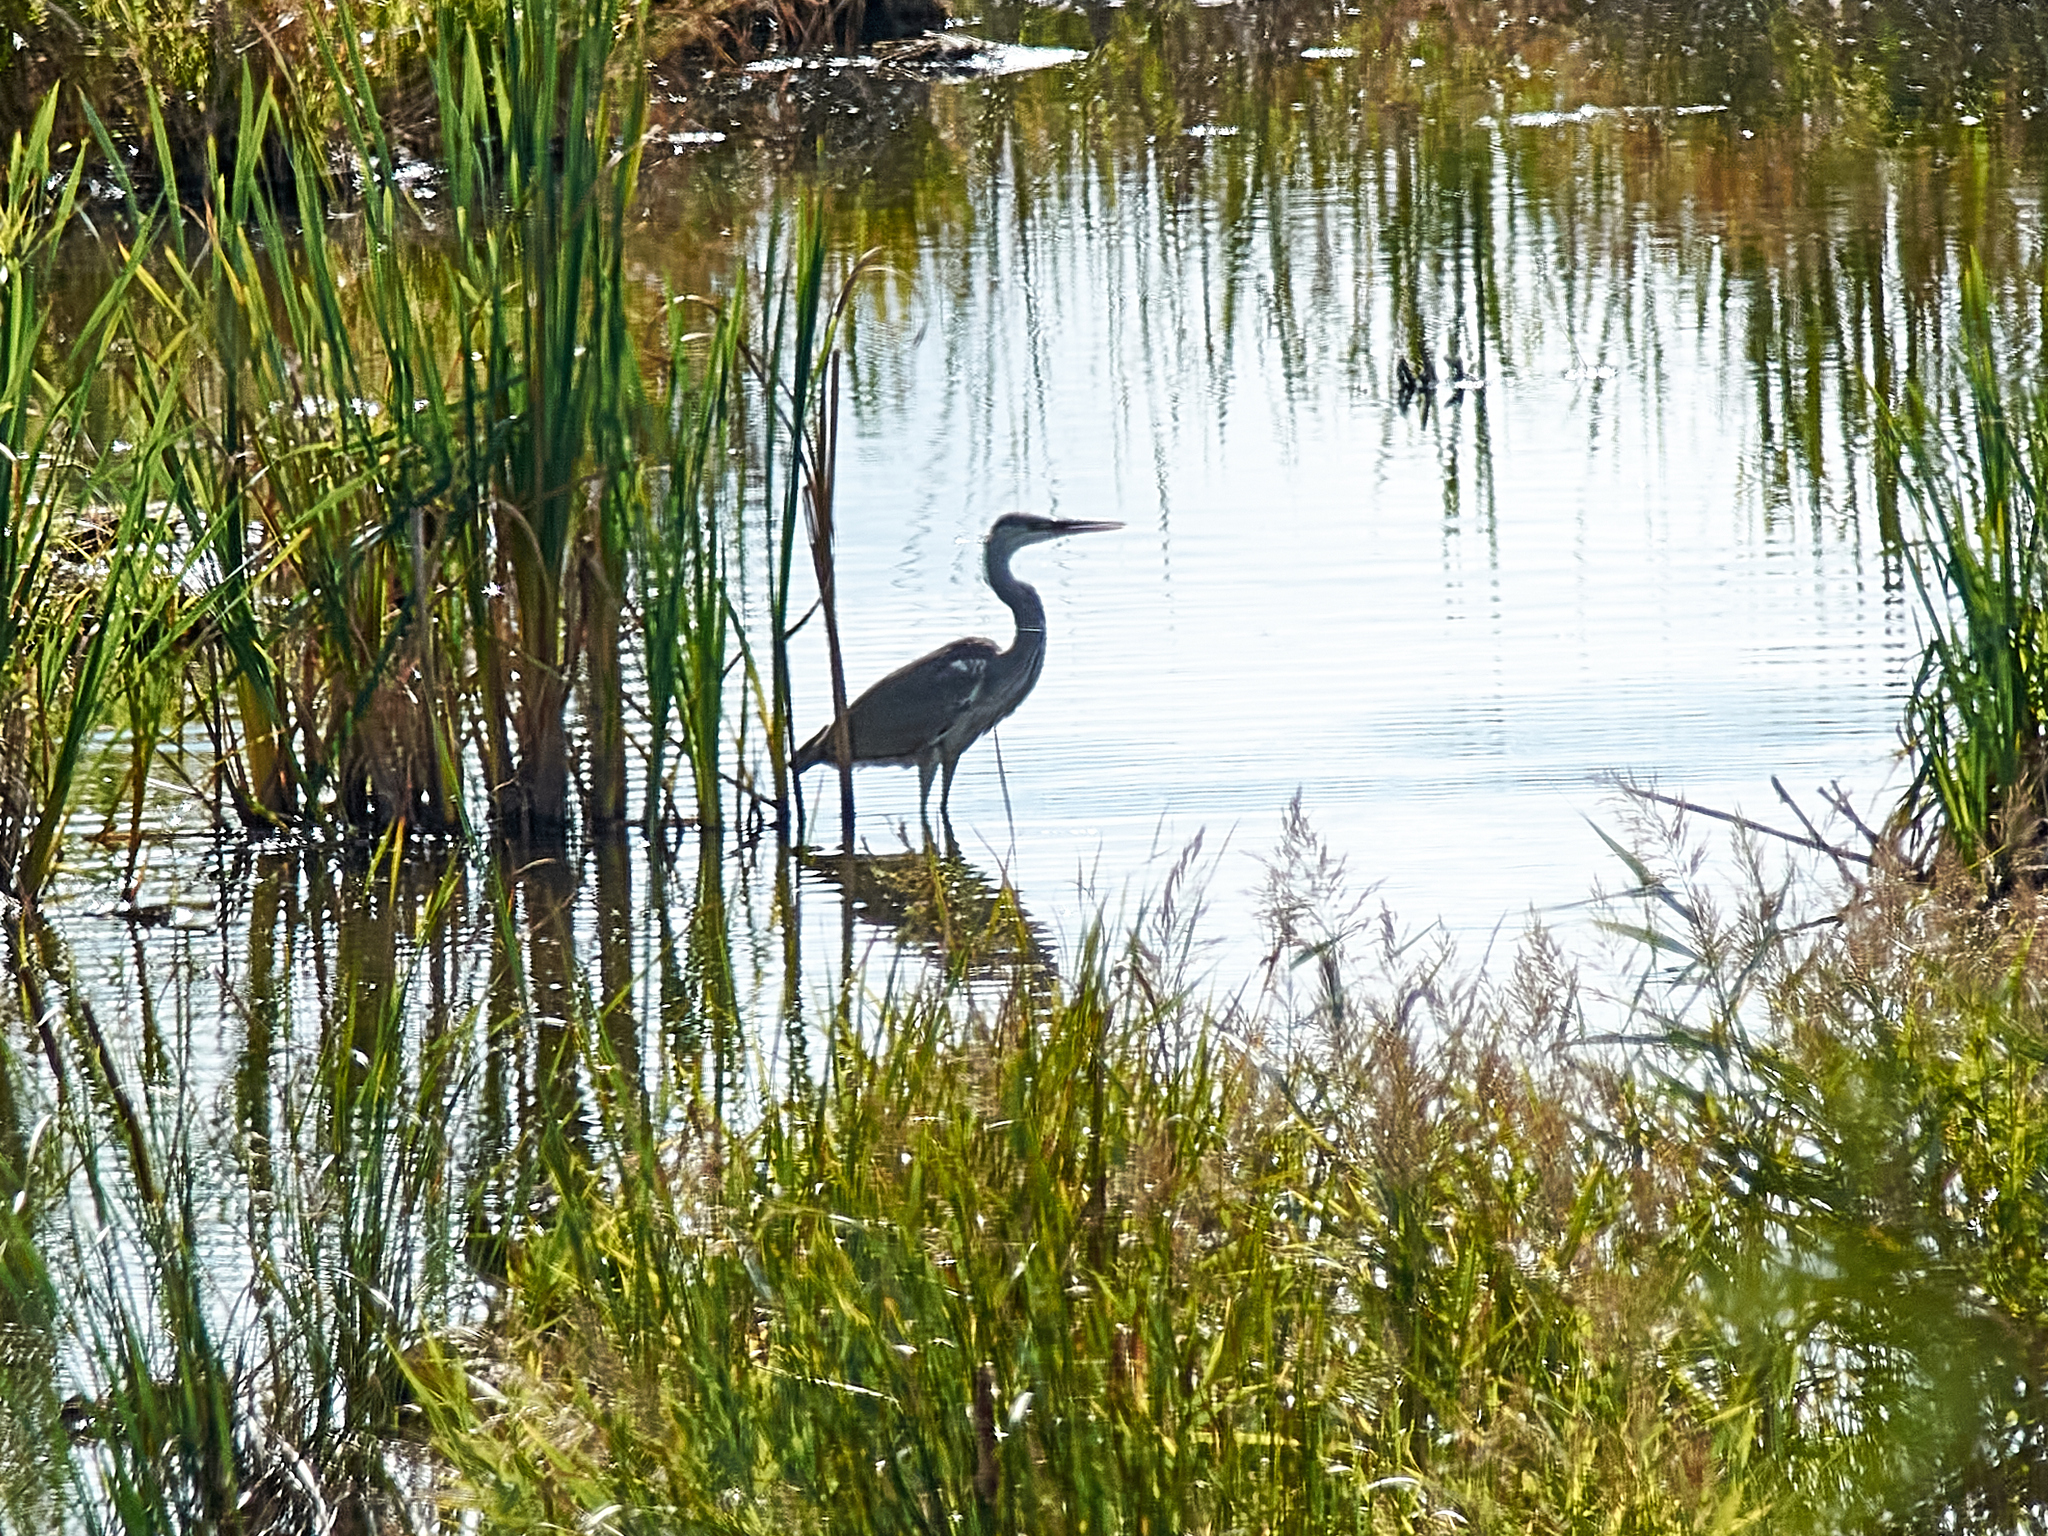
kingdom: Animalia
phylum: Chordata
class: Aves
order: Pelecaniformes
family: Ardeidae
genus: Ardea
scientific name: Ardea cinerea
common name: Grey heron
